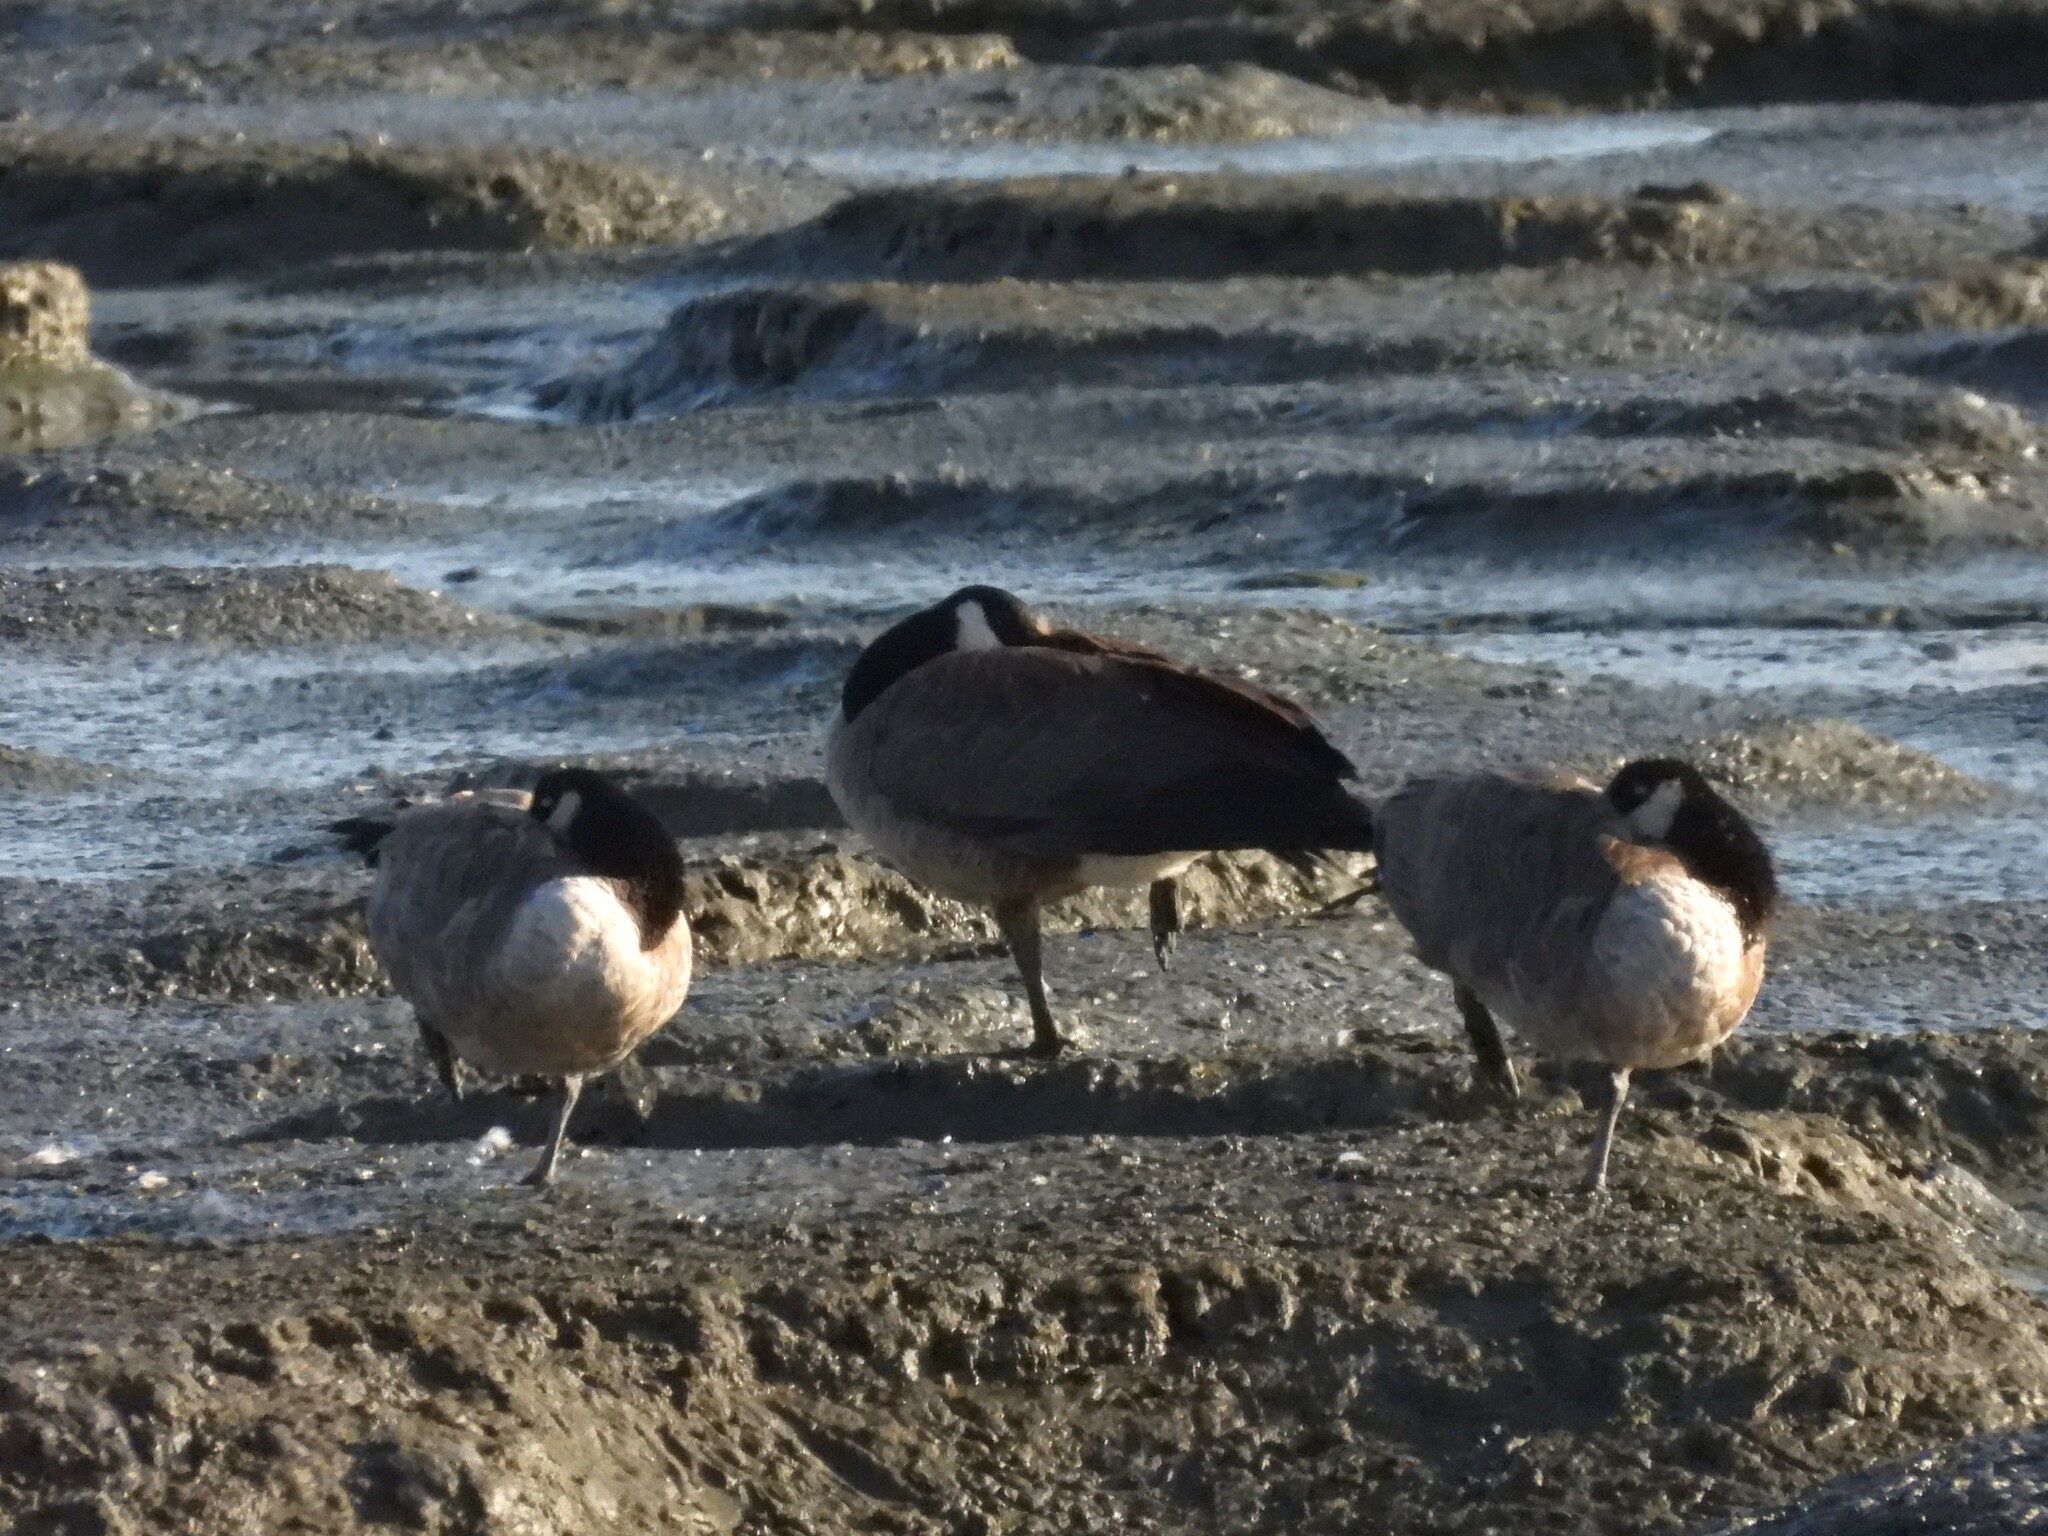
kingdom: Animalia
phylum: Chordata
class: Aves
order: Anseriformes
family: Anatidae
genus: Branta
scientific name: Branta canadensis
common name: Canada goose
